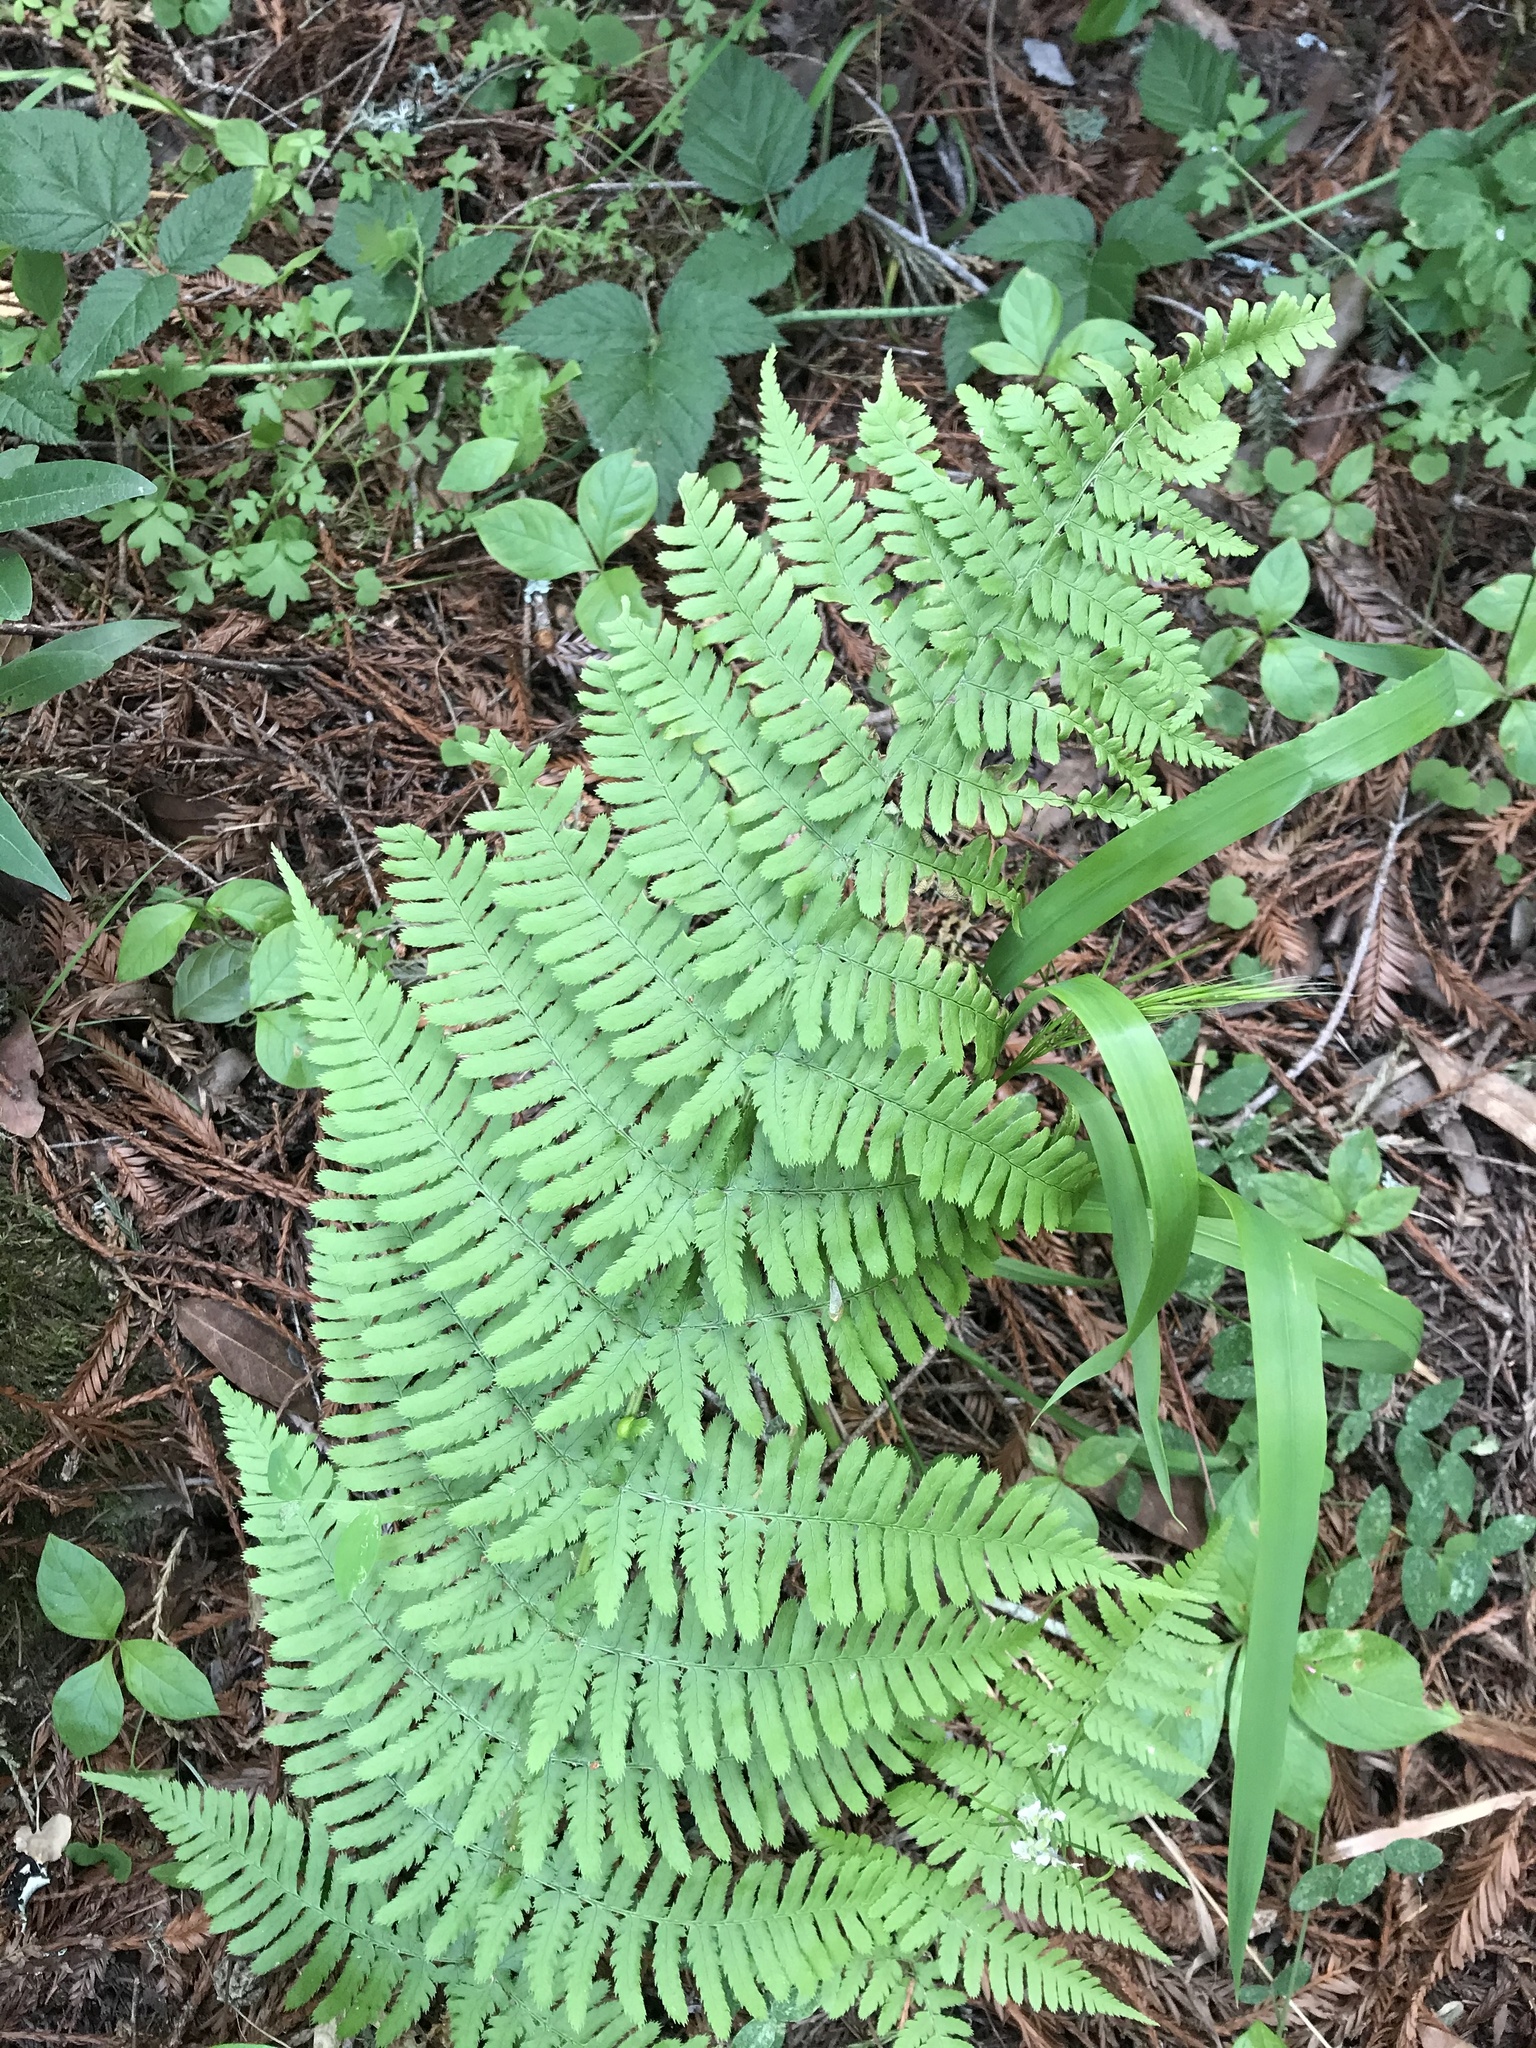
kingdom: Plantae
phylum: Tracheophyta
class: Polypodiopsida
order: Polypodiales
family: Dryopteridaceae
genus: Dryopteris
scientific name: Dryopteris arguta
